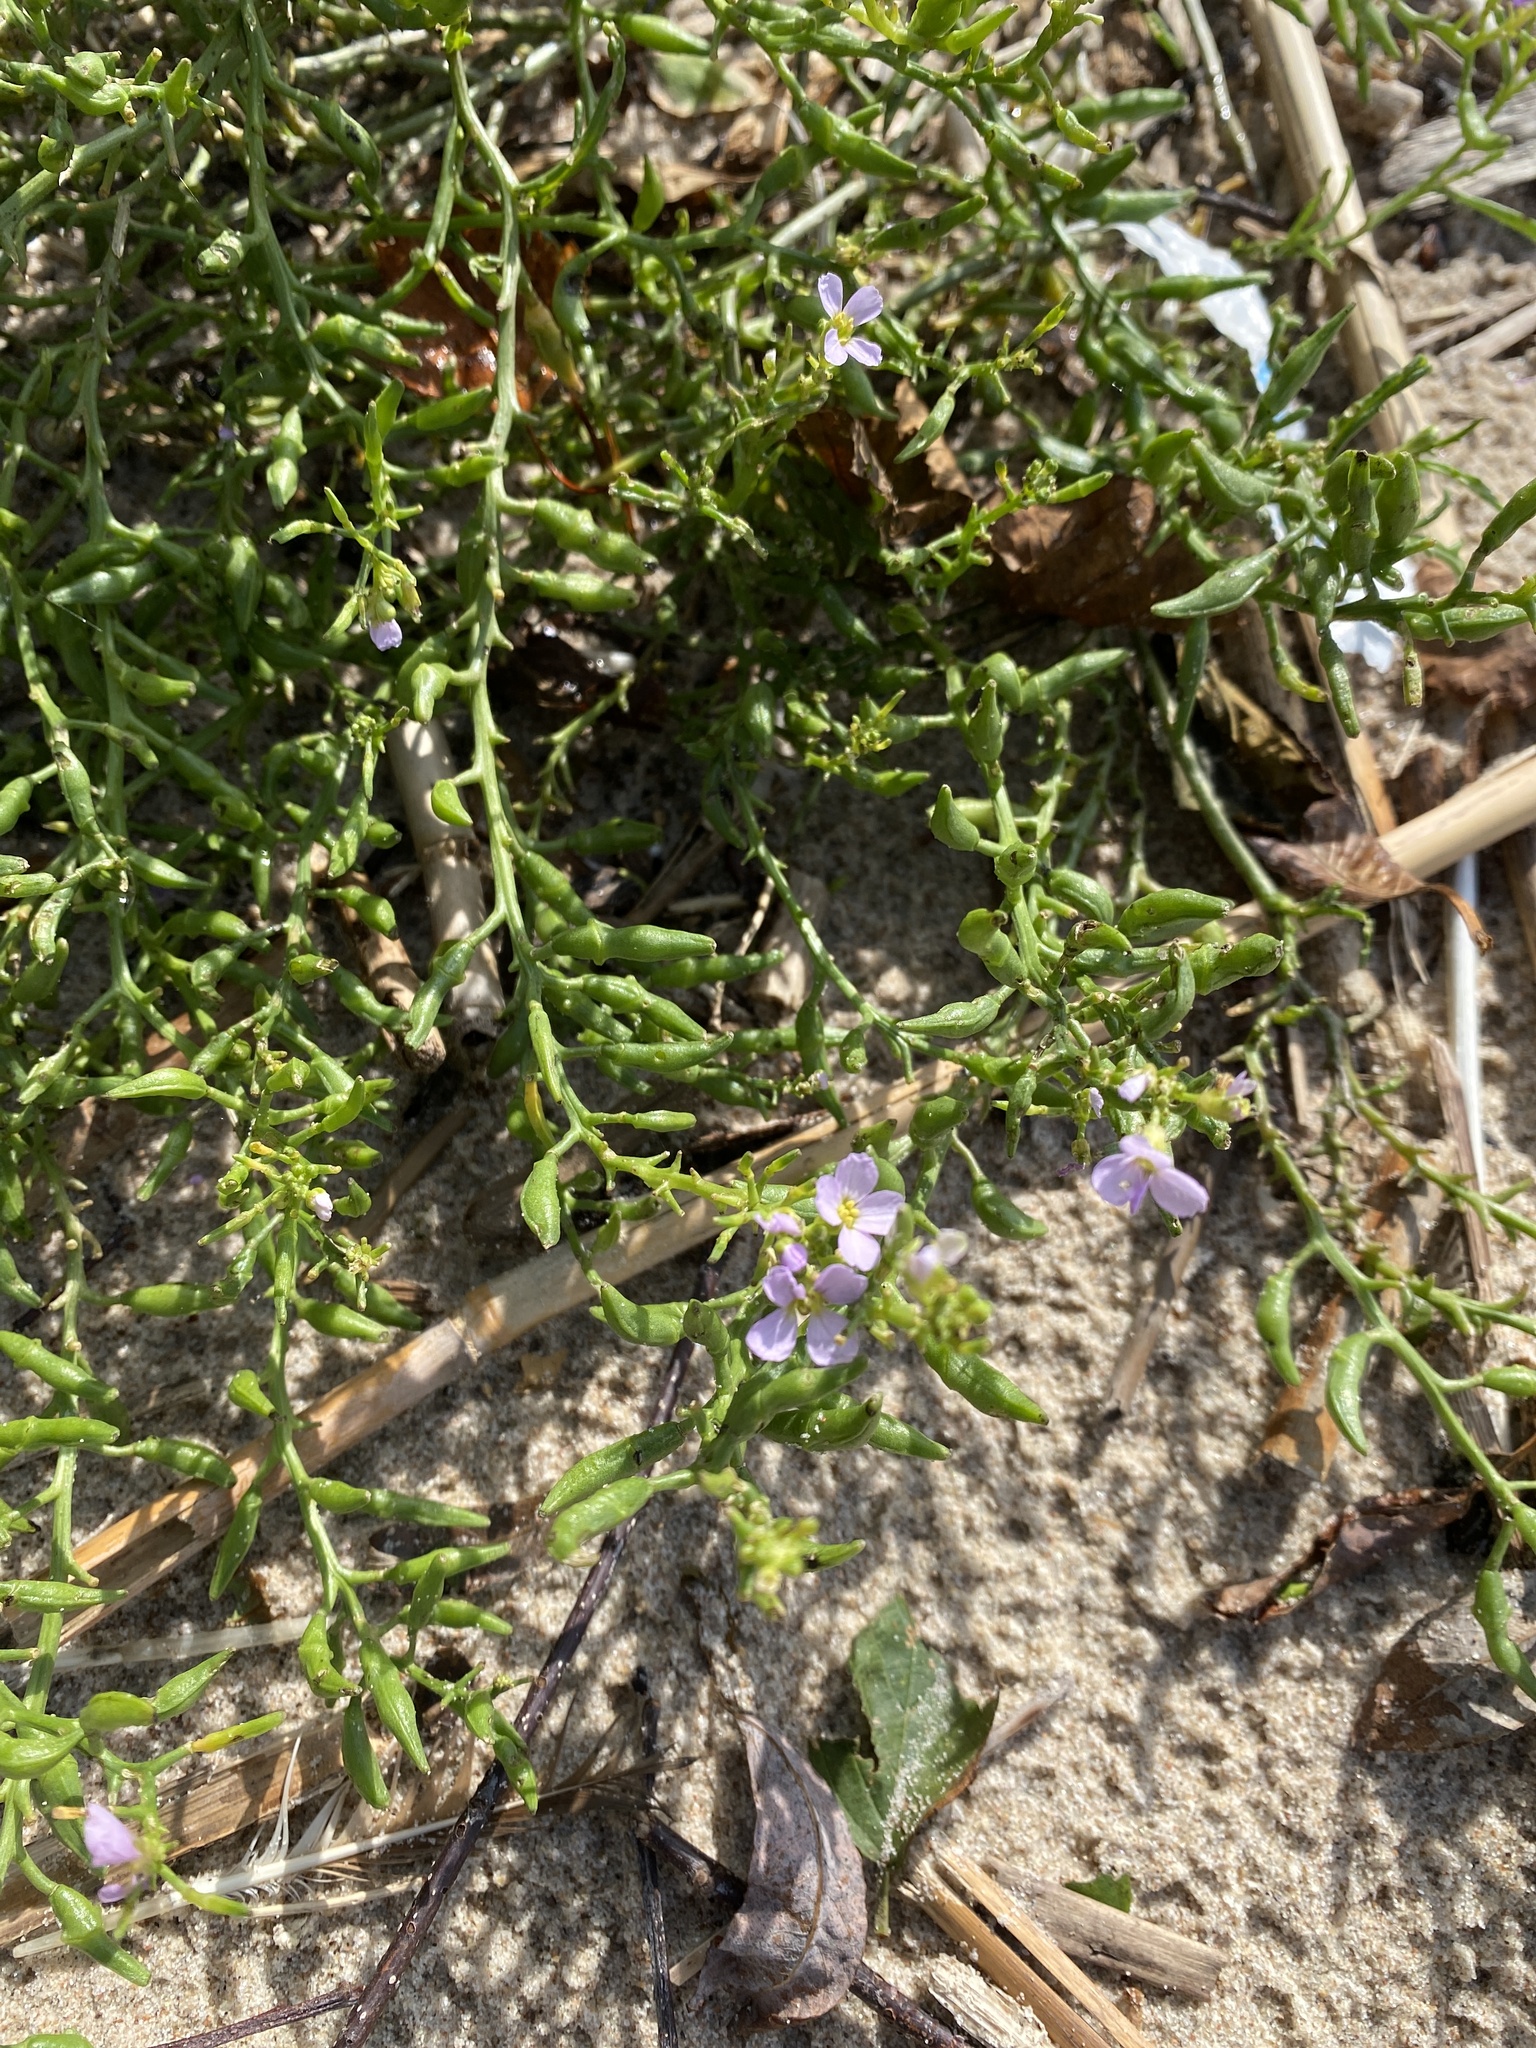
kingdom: Plantae
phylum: Tracheophyta
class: Magnoliopsida
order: Brassicales
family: Brassicaceae
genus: Cakile
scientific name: Cakile maritima
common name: Sea rocket
